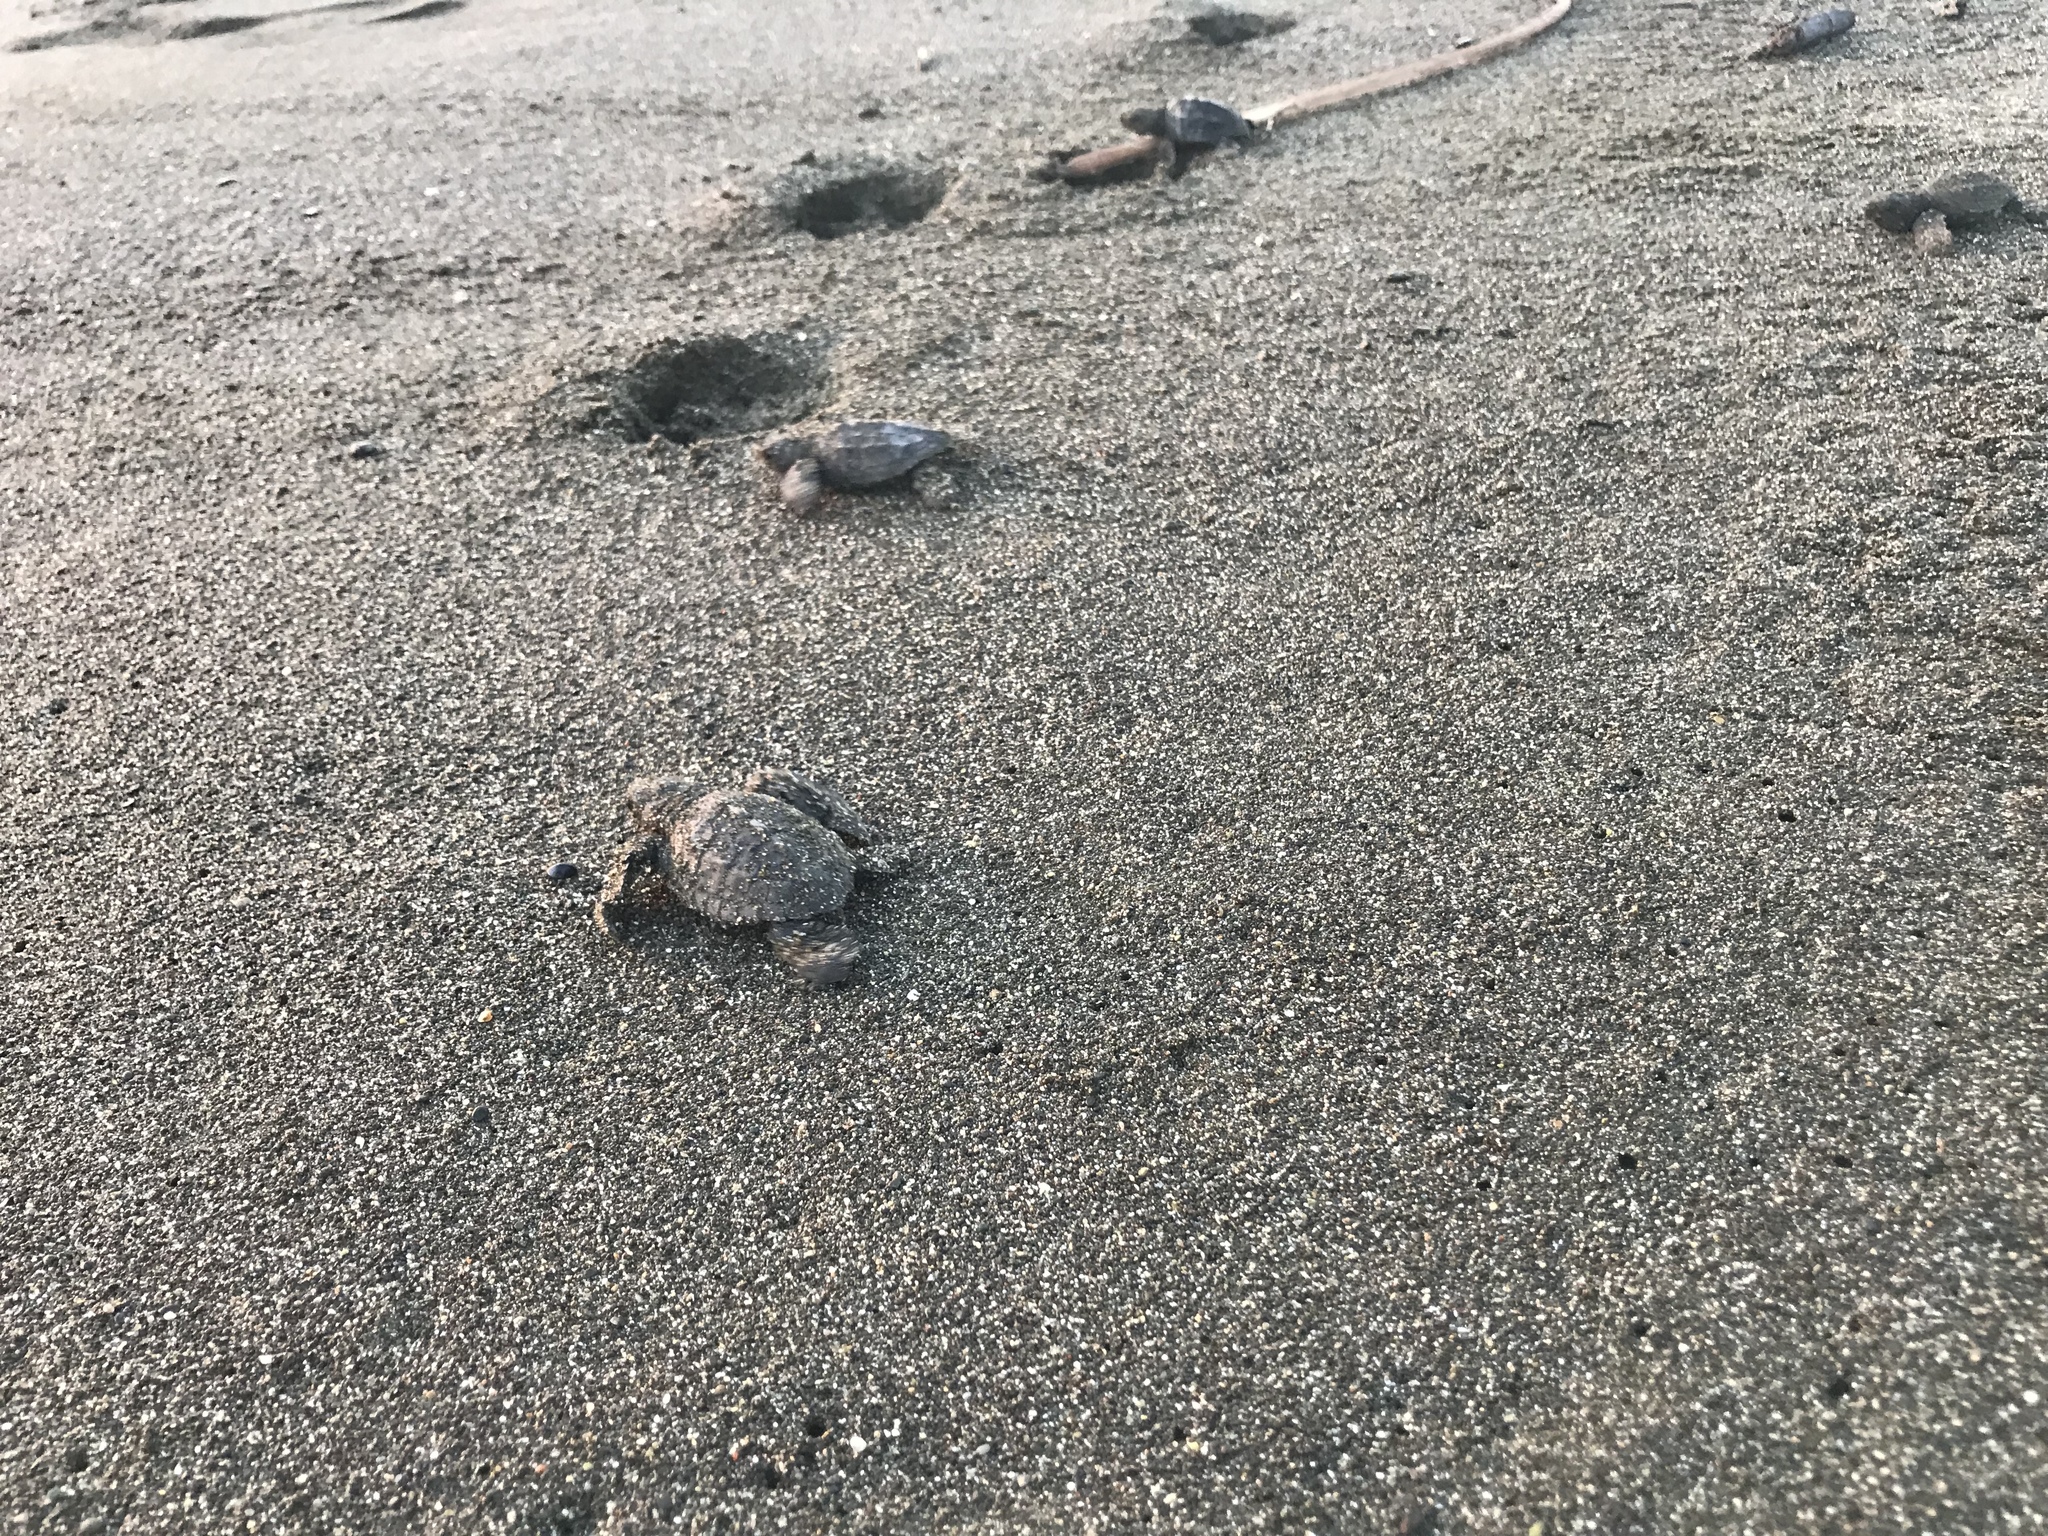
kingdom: Animalia
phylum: Chordata
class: Testudines
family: Cheloniidae
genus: Lepidochelys
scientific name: Lepidochelys olivacea
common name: Olive ridley
